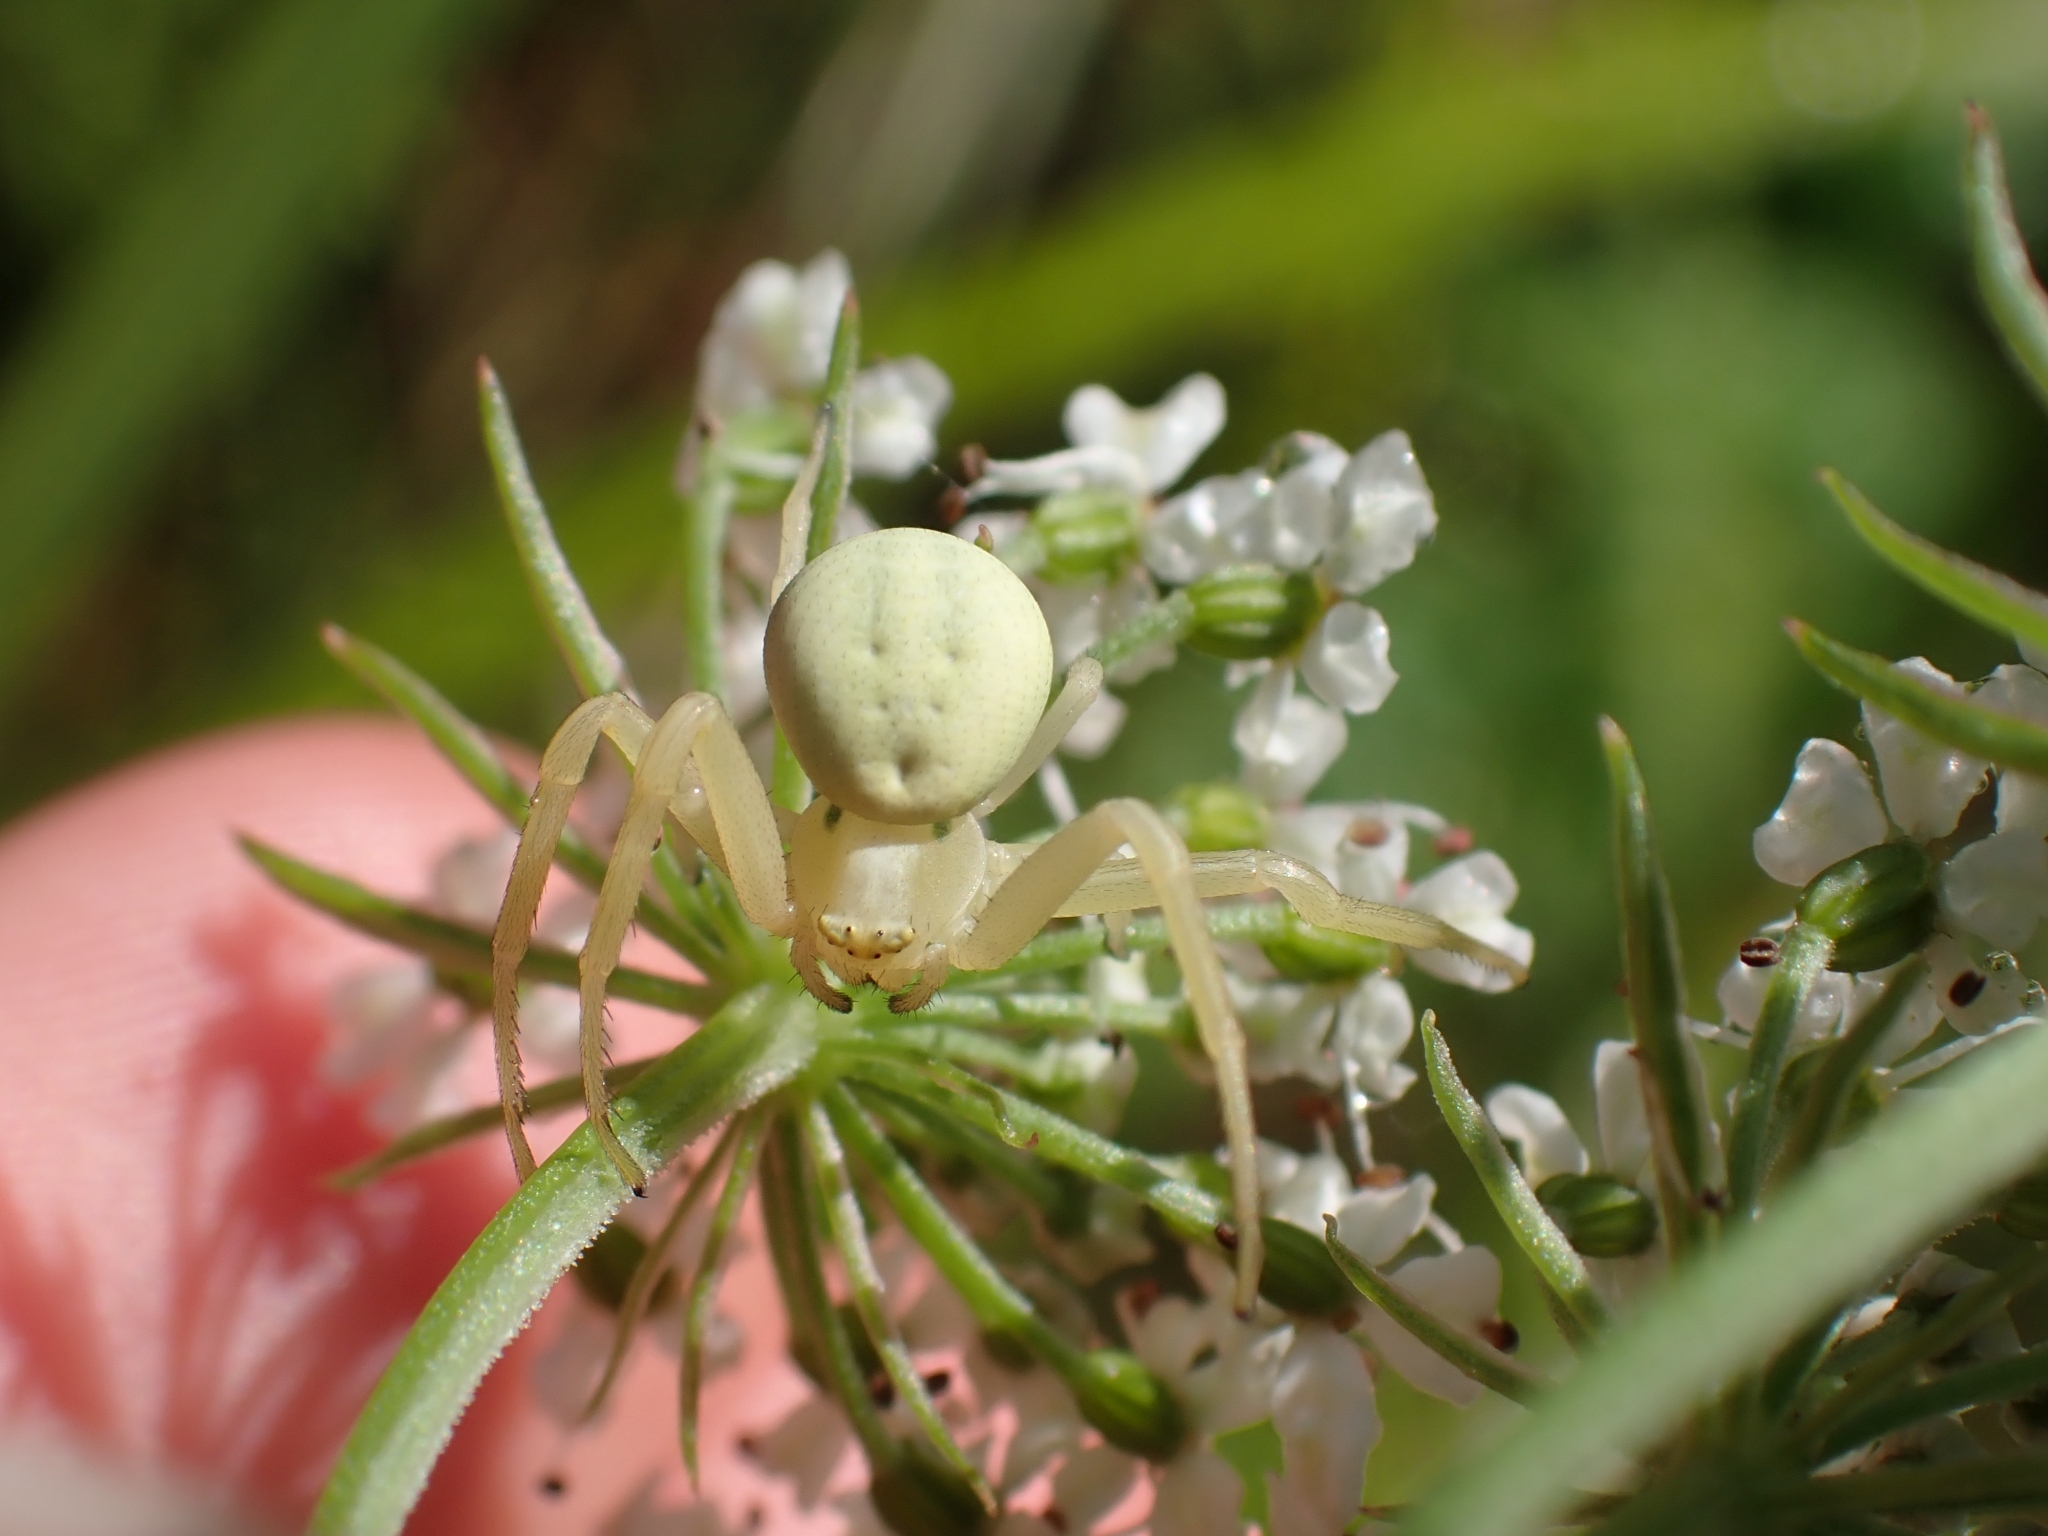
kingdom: Animalia
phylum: Arthropoda
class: Arachnida
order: Araneae
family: Thomisidae
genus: Misumena
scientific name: Misumena vatia
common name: Goldenrod crab spider
